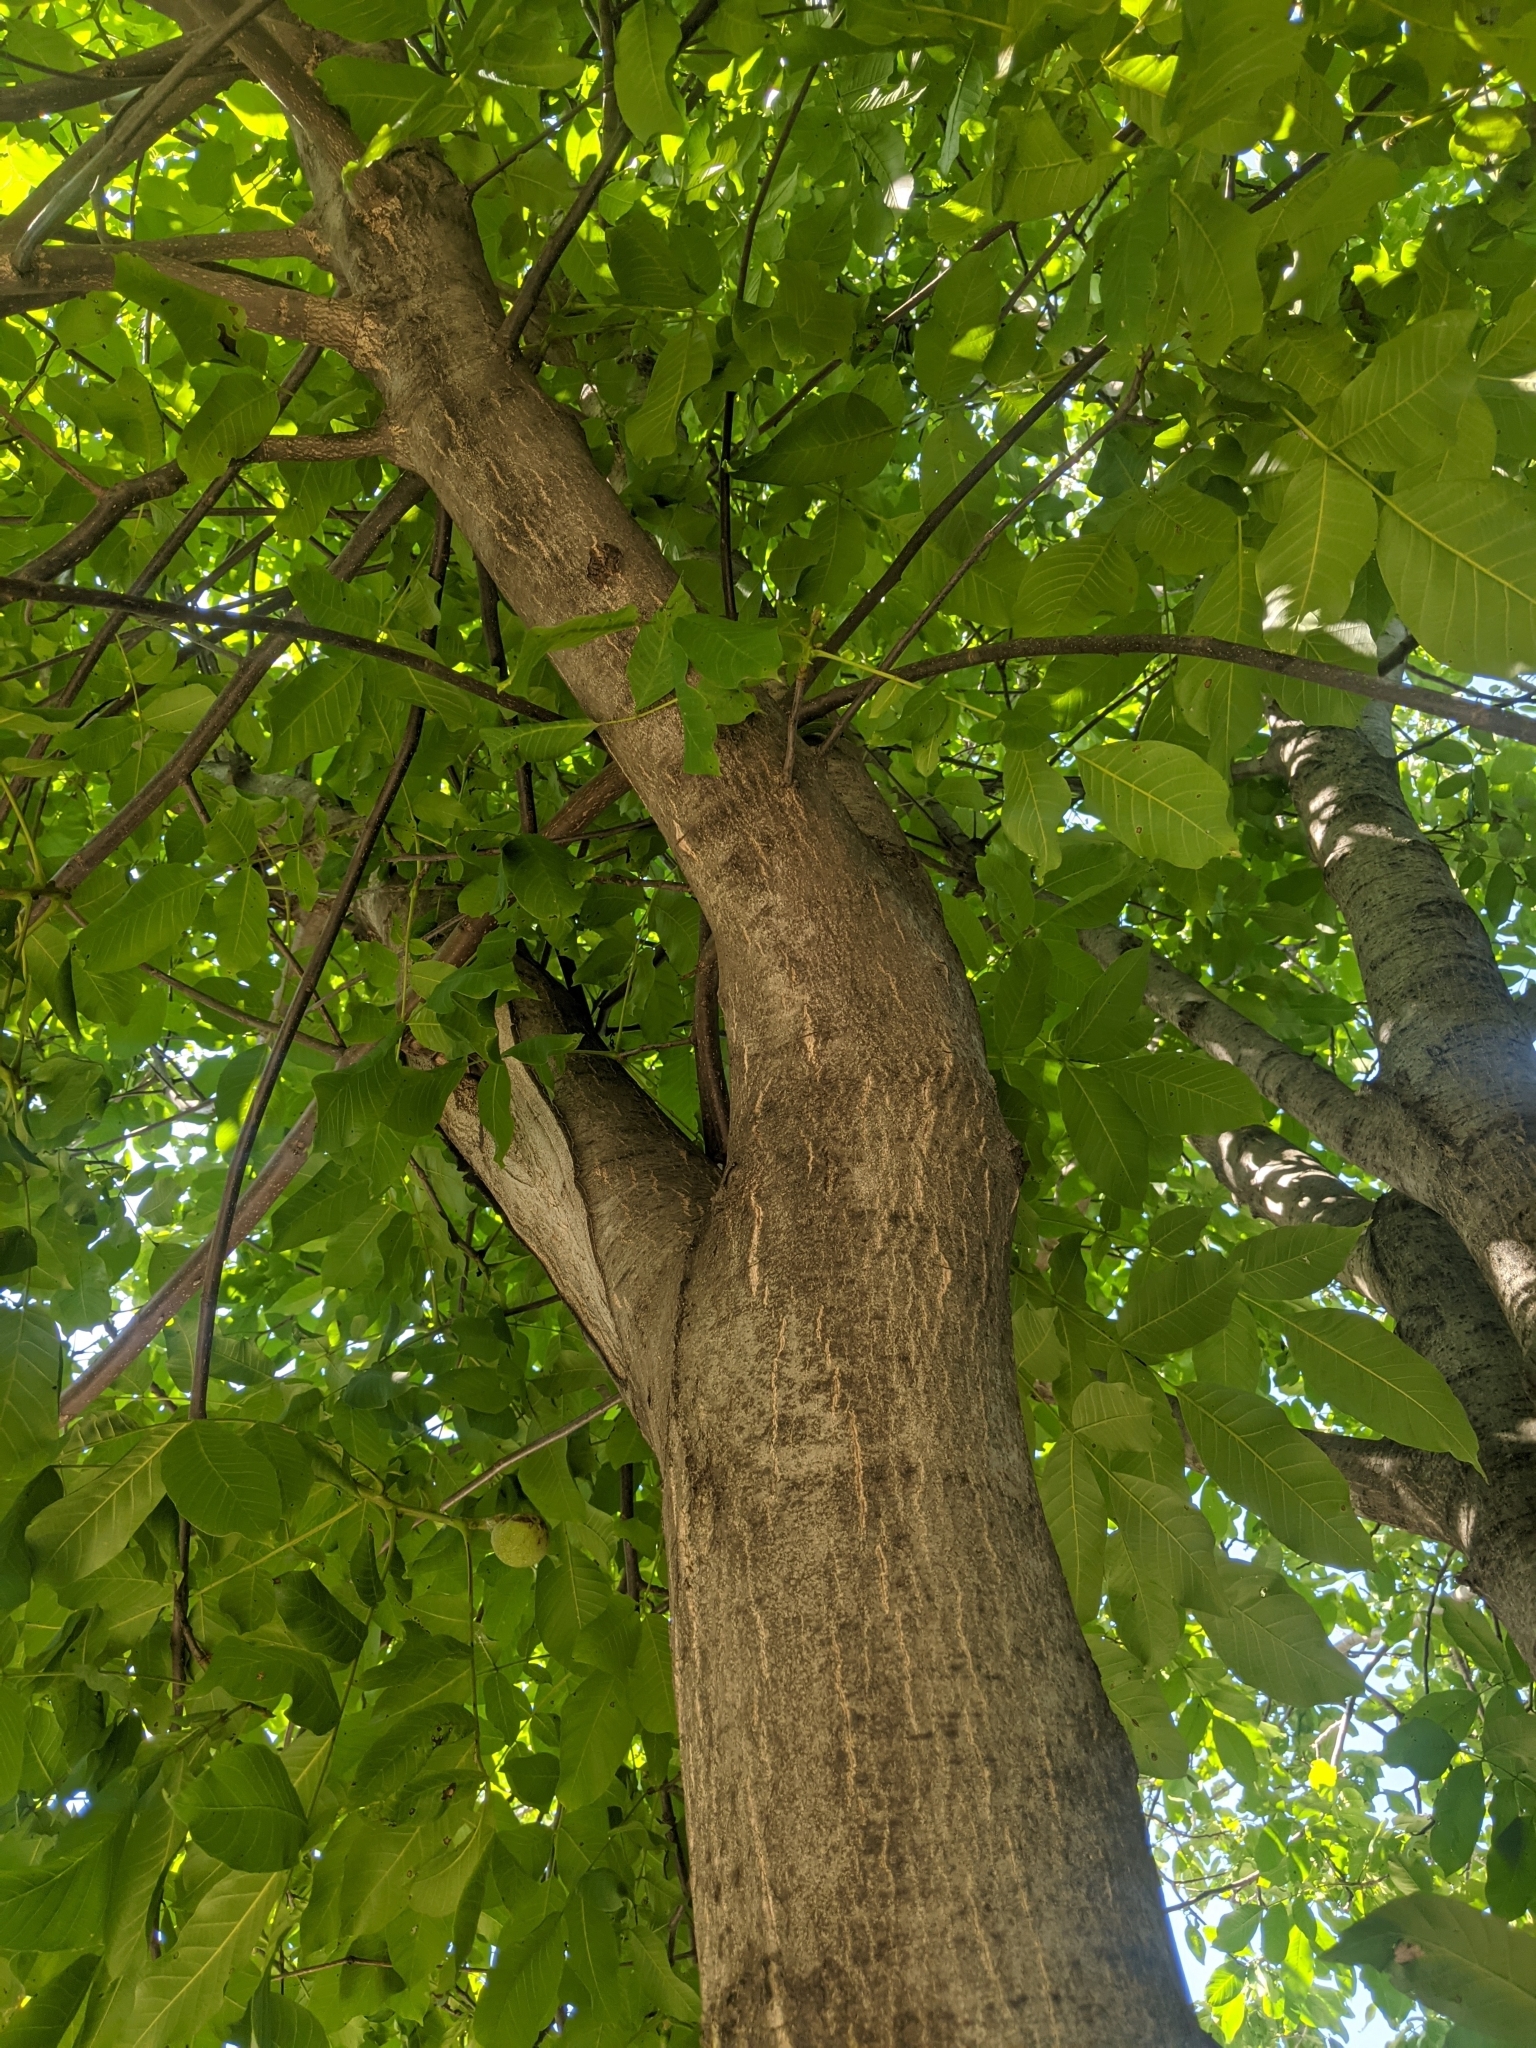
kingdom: Plantae
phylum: Tracheophyta
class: Magnoliopsida
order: Fagales
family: Juglandaceae
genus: Juglans
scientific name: Juglans regia
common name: Walnut
